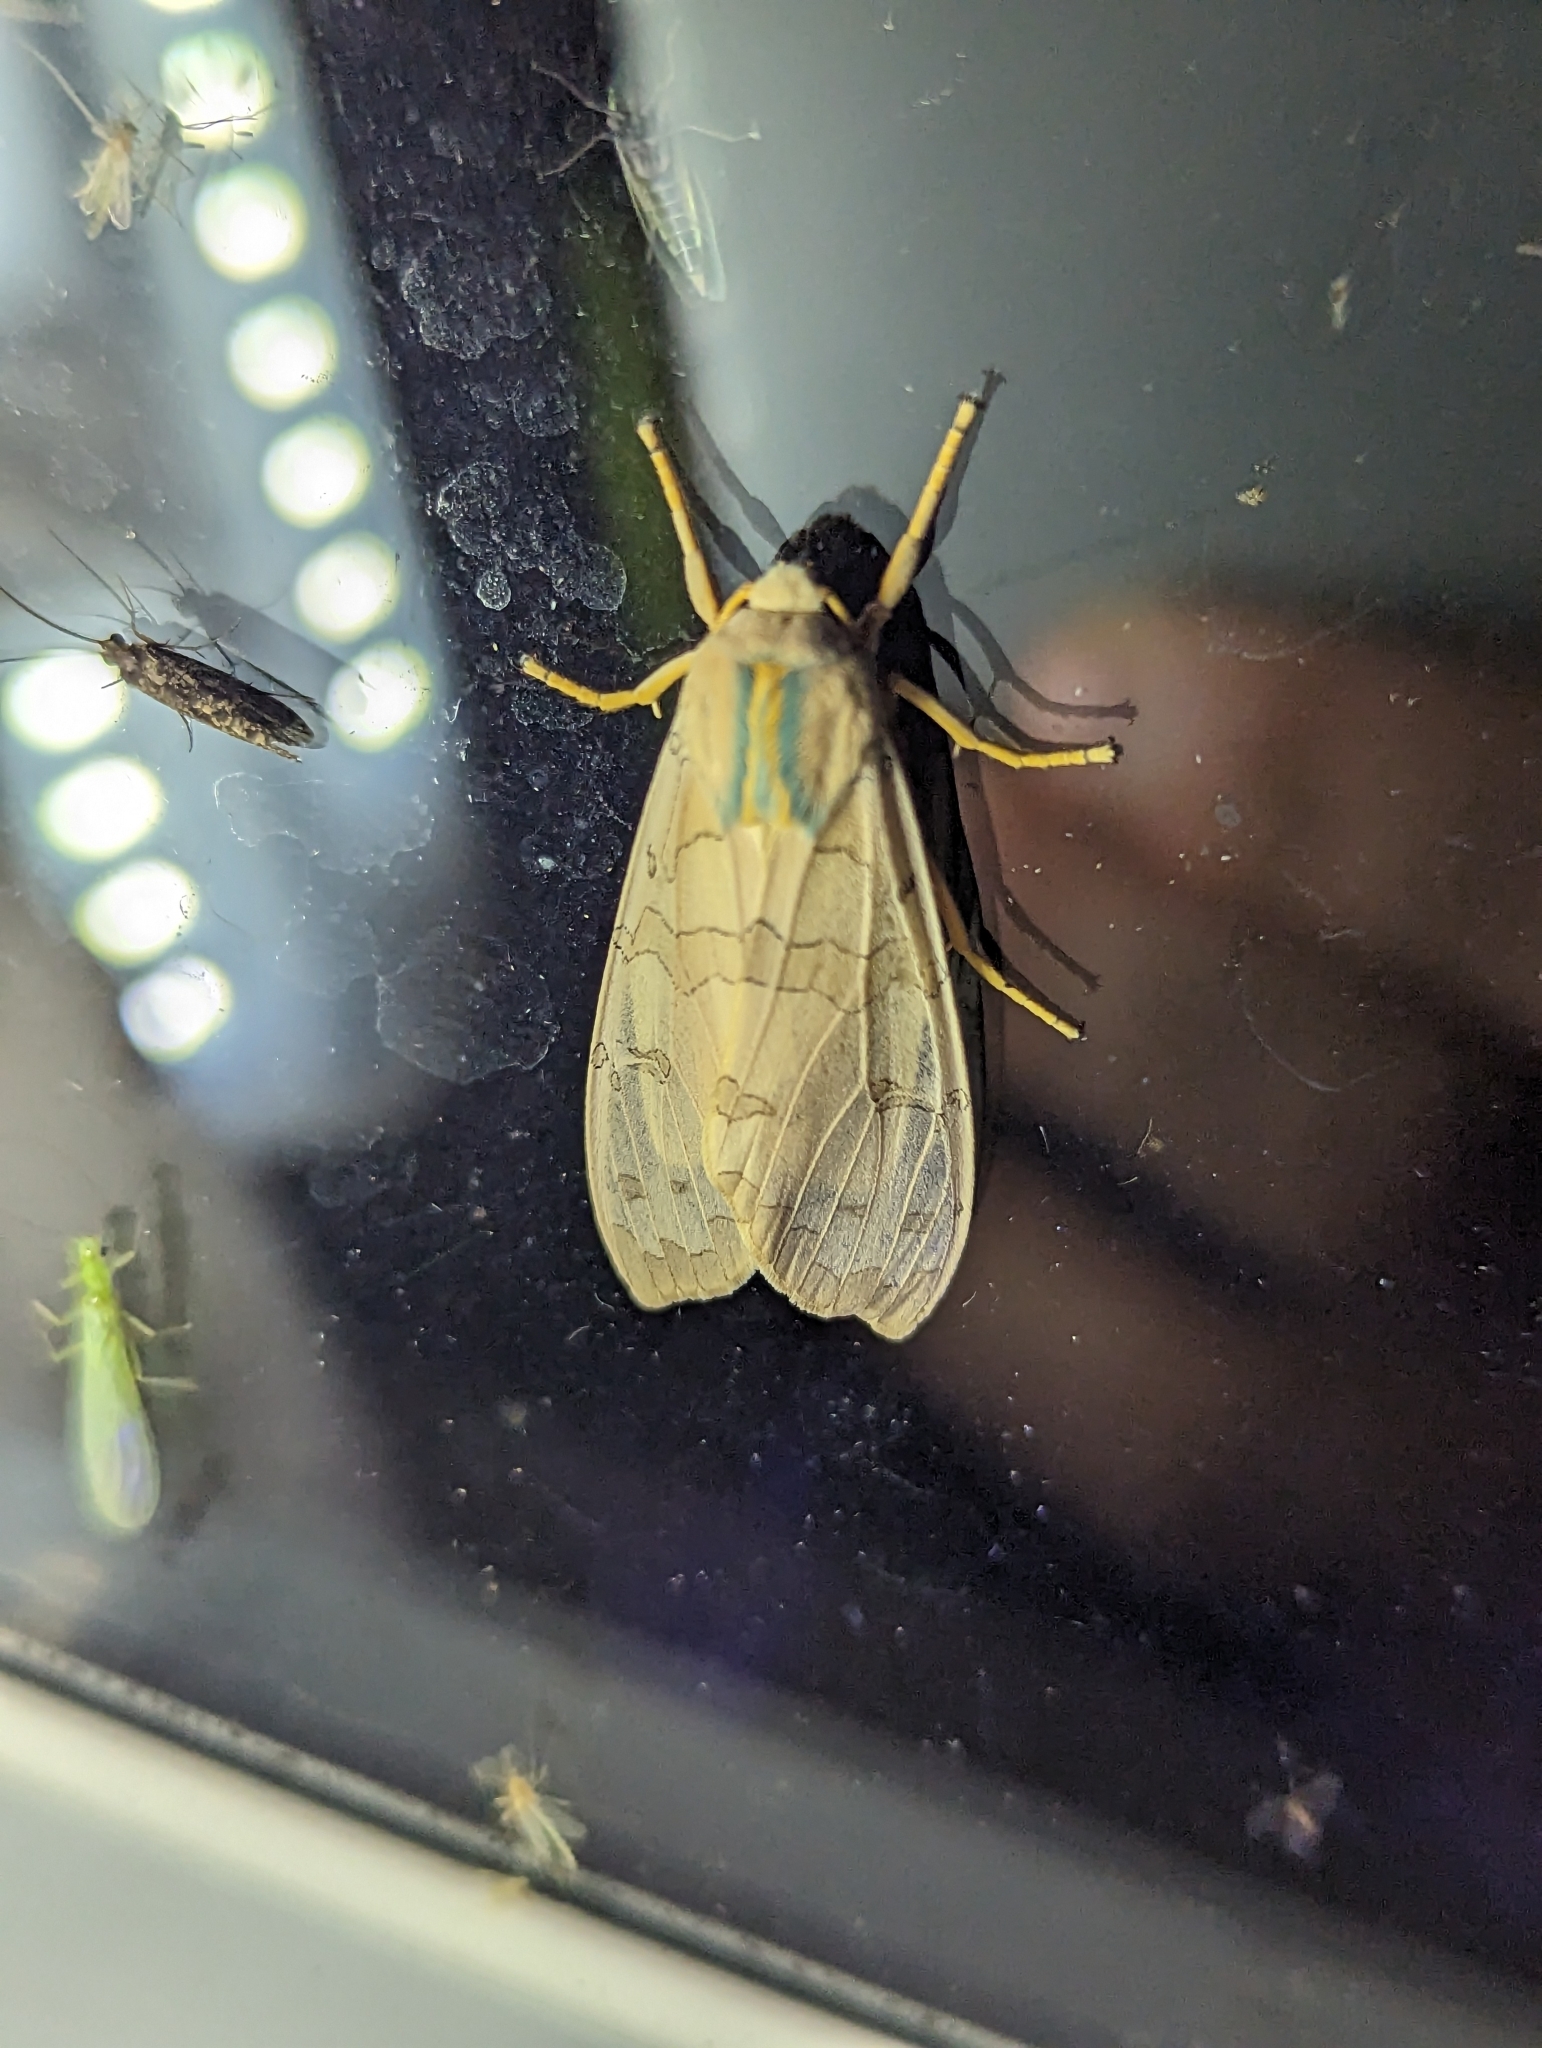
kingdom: Animalia
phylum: Arthropoda
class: Insecta
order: Lepidoptera
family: Erebidae
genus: Halysidota
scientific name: Halysidota tessellaris
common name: Banded tussock moth
